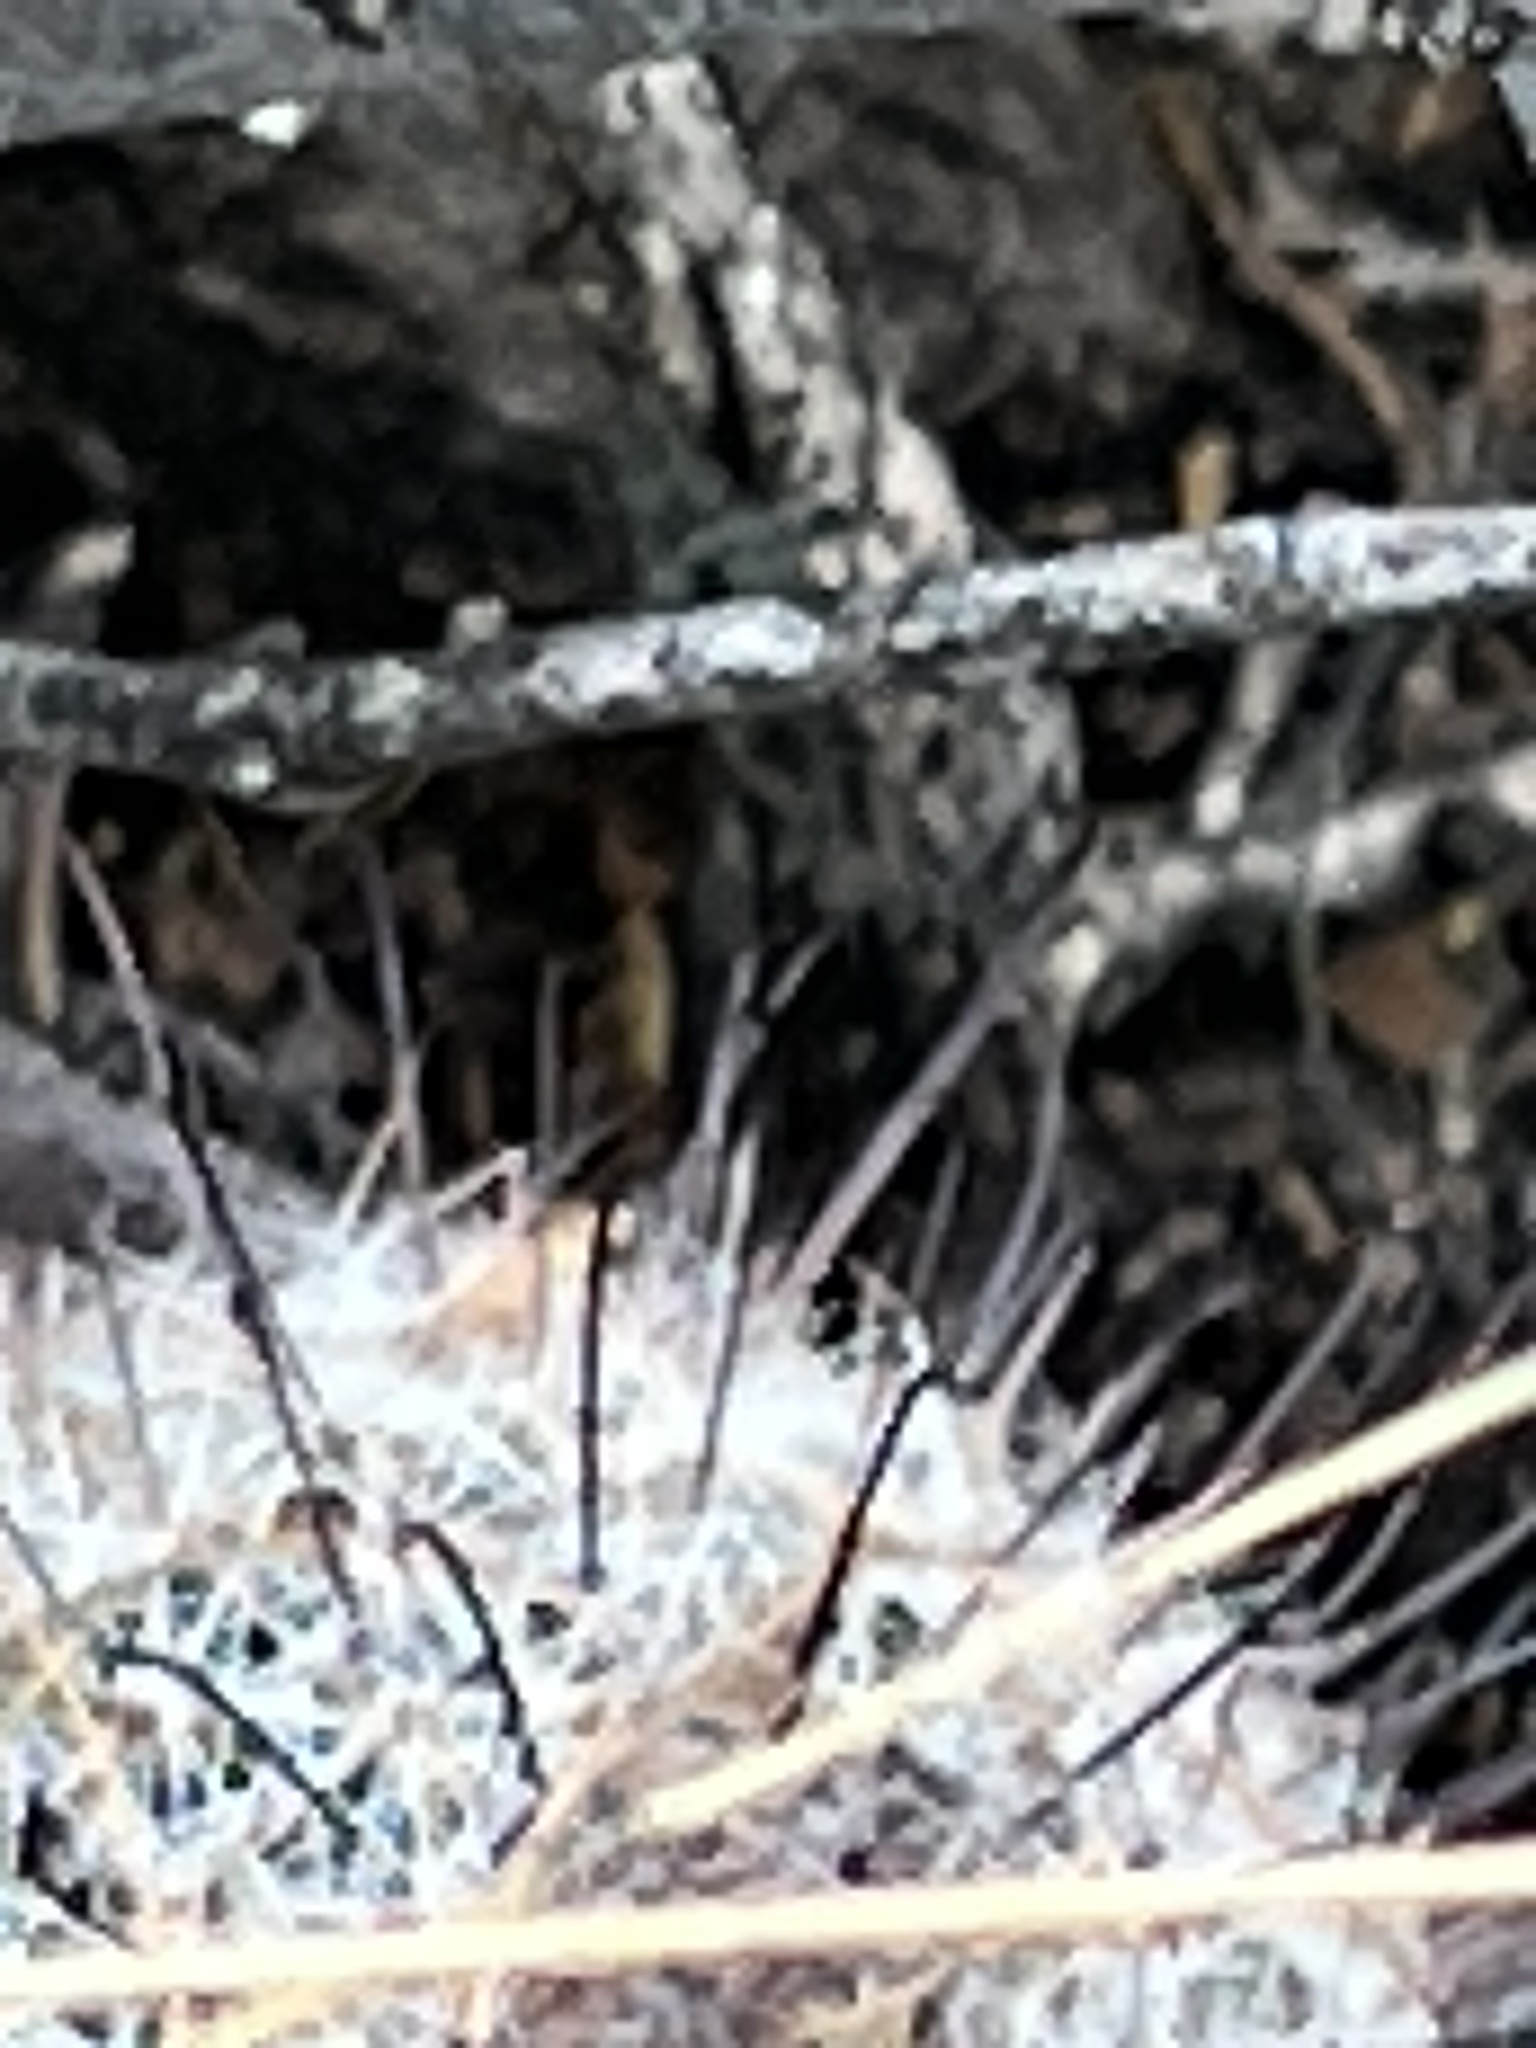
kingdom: Plantae
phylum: Tracheophyta
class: Magnoliopsida
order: Caryophyllales
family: Cactaceae
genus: Cochemiea
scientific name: Cochemiea grahamii
